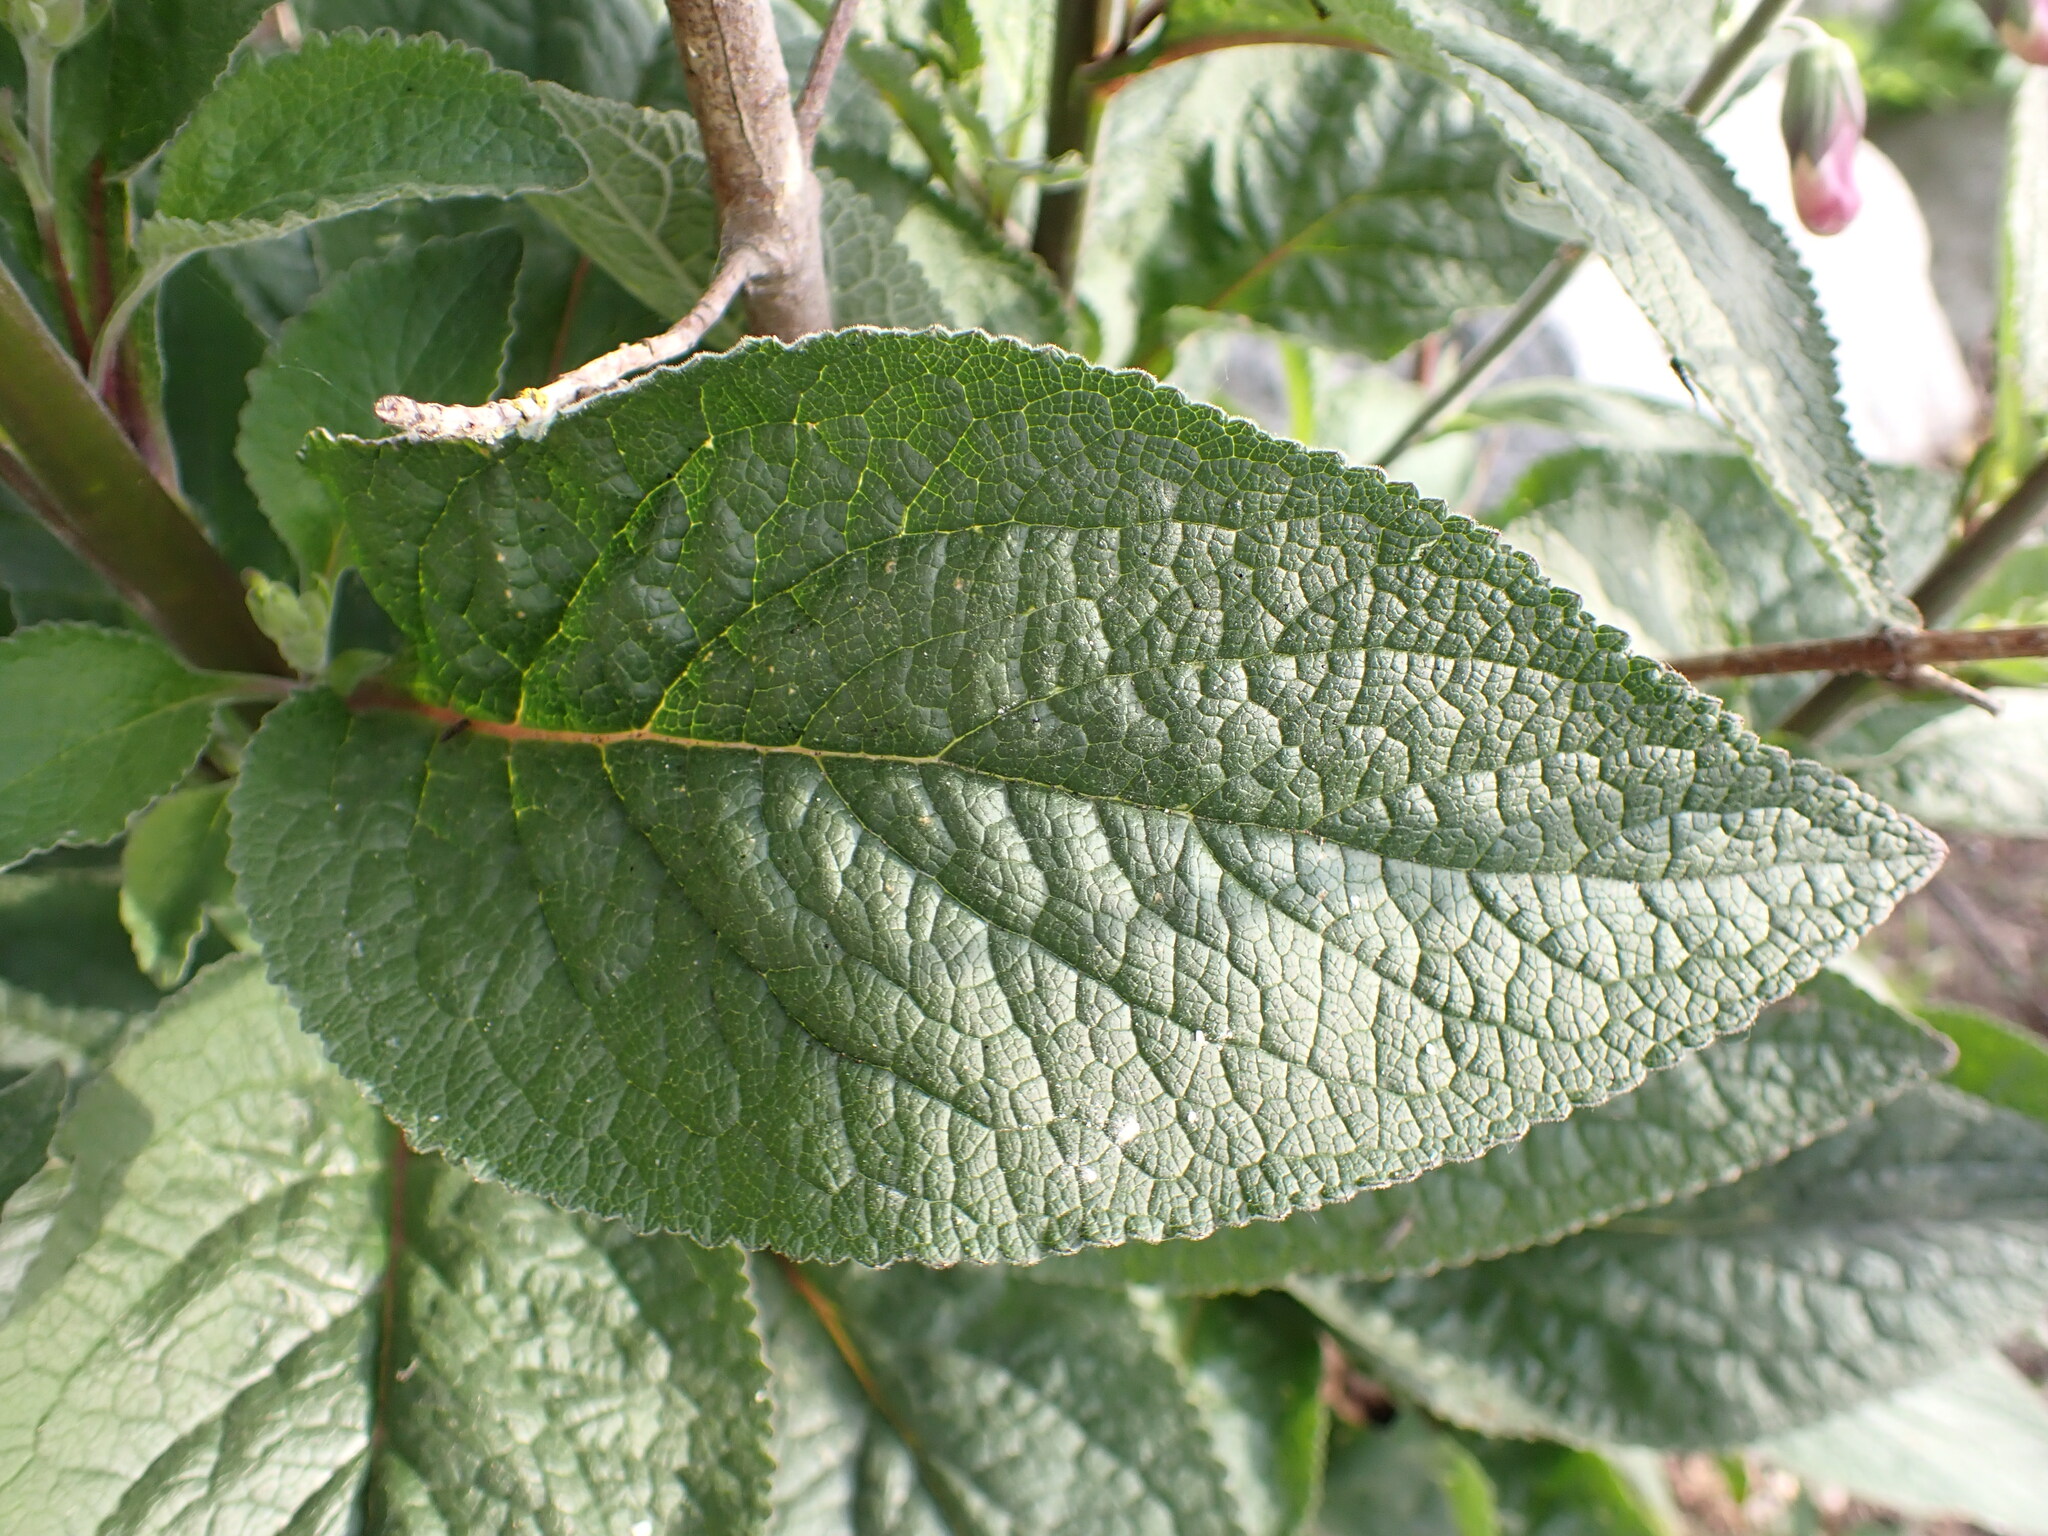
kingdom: Plantae
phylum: Tracheophyta
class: Magnoliopsida
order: Lamiales
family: Plantaginaceae
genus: Digitalis
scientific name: Digitalis purpurea
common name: Foxglove
